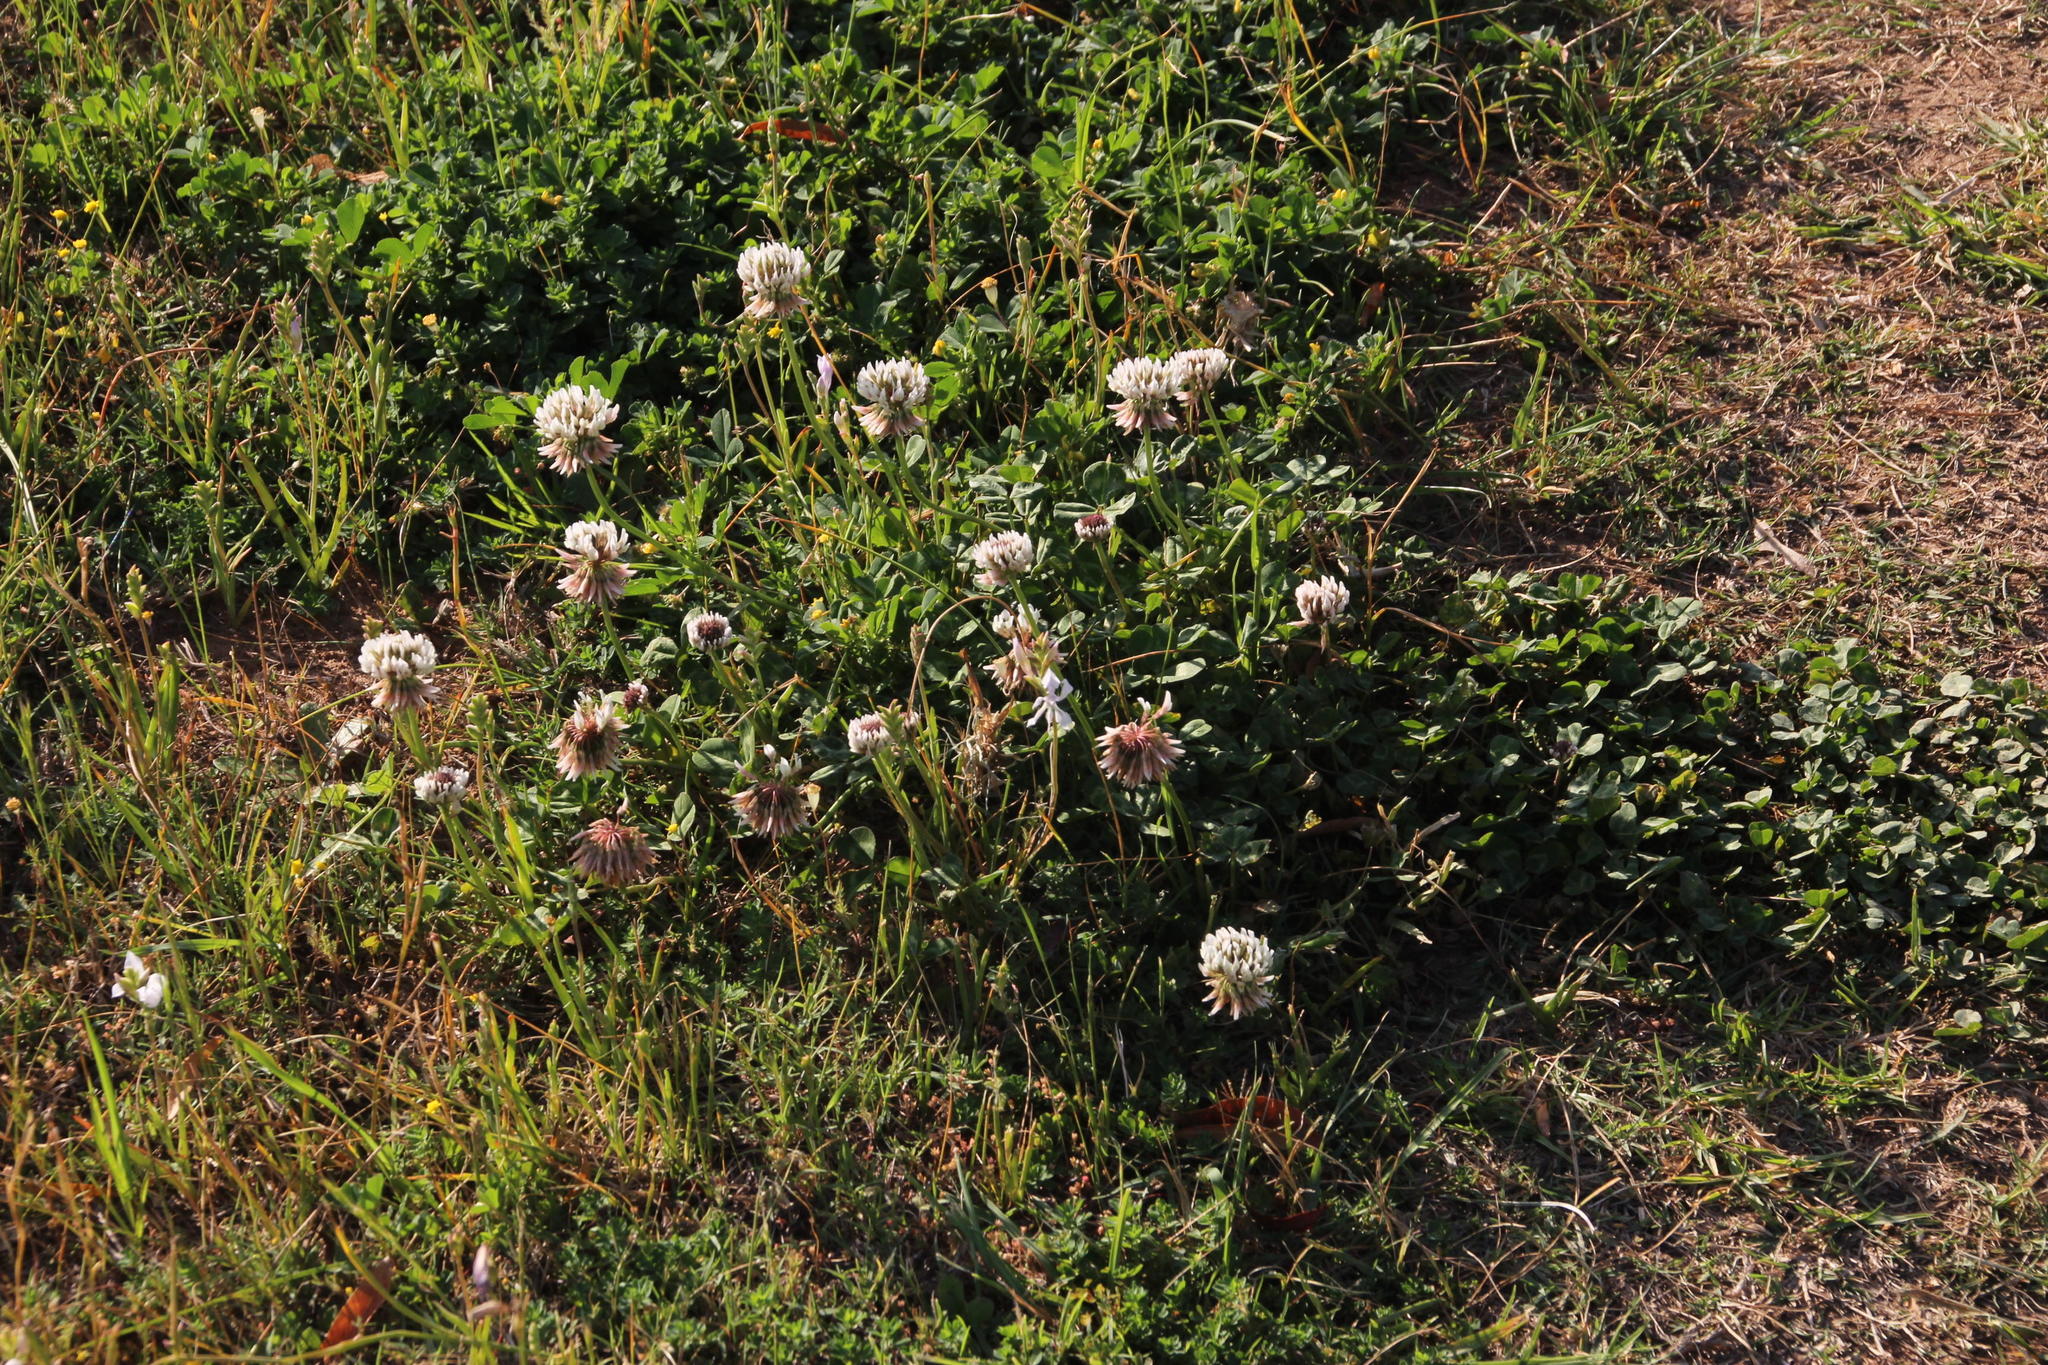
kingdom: Plantae
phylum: Tracheophyta
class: Magnoliopsida
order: Fabales
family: Fabaceae
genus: Trifolium
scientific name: Trifolium repens
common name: White clover
